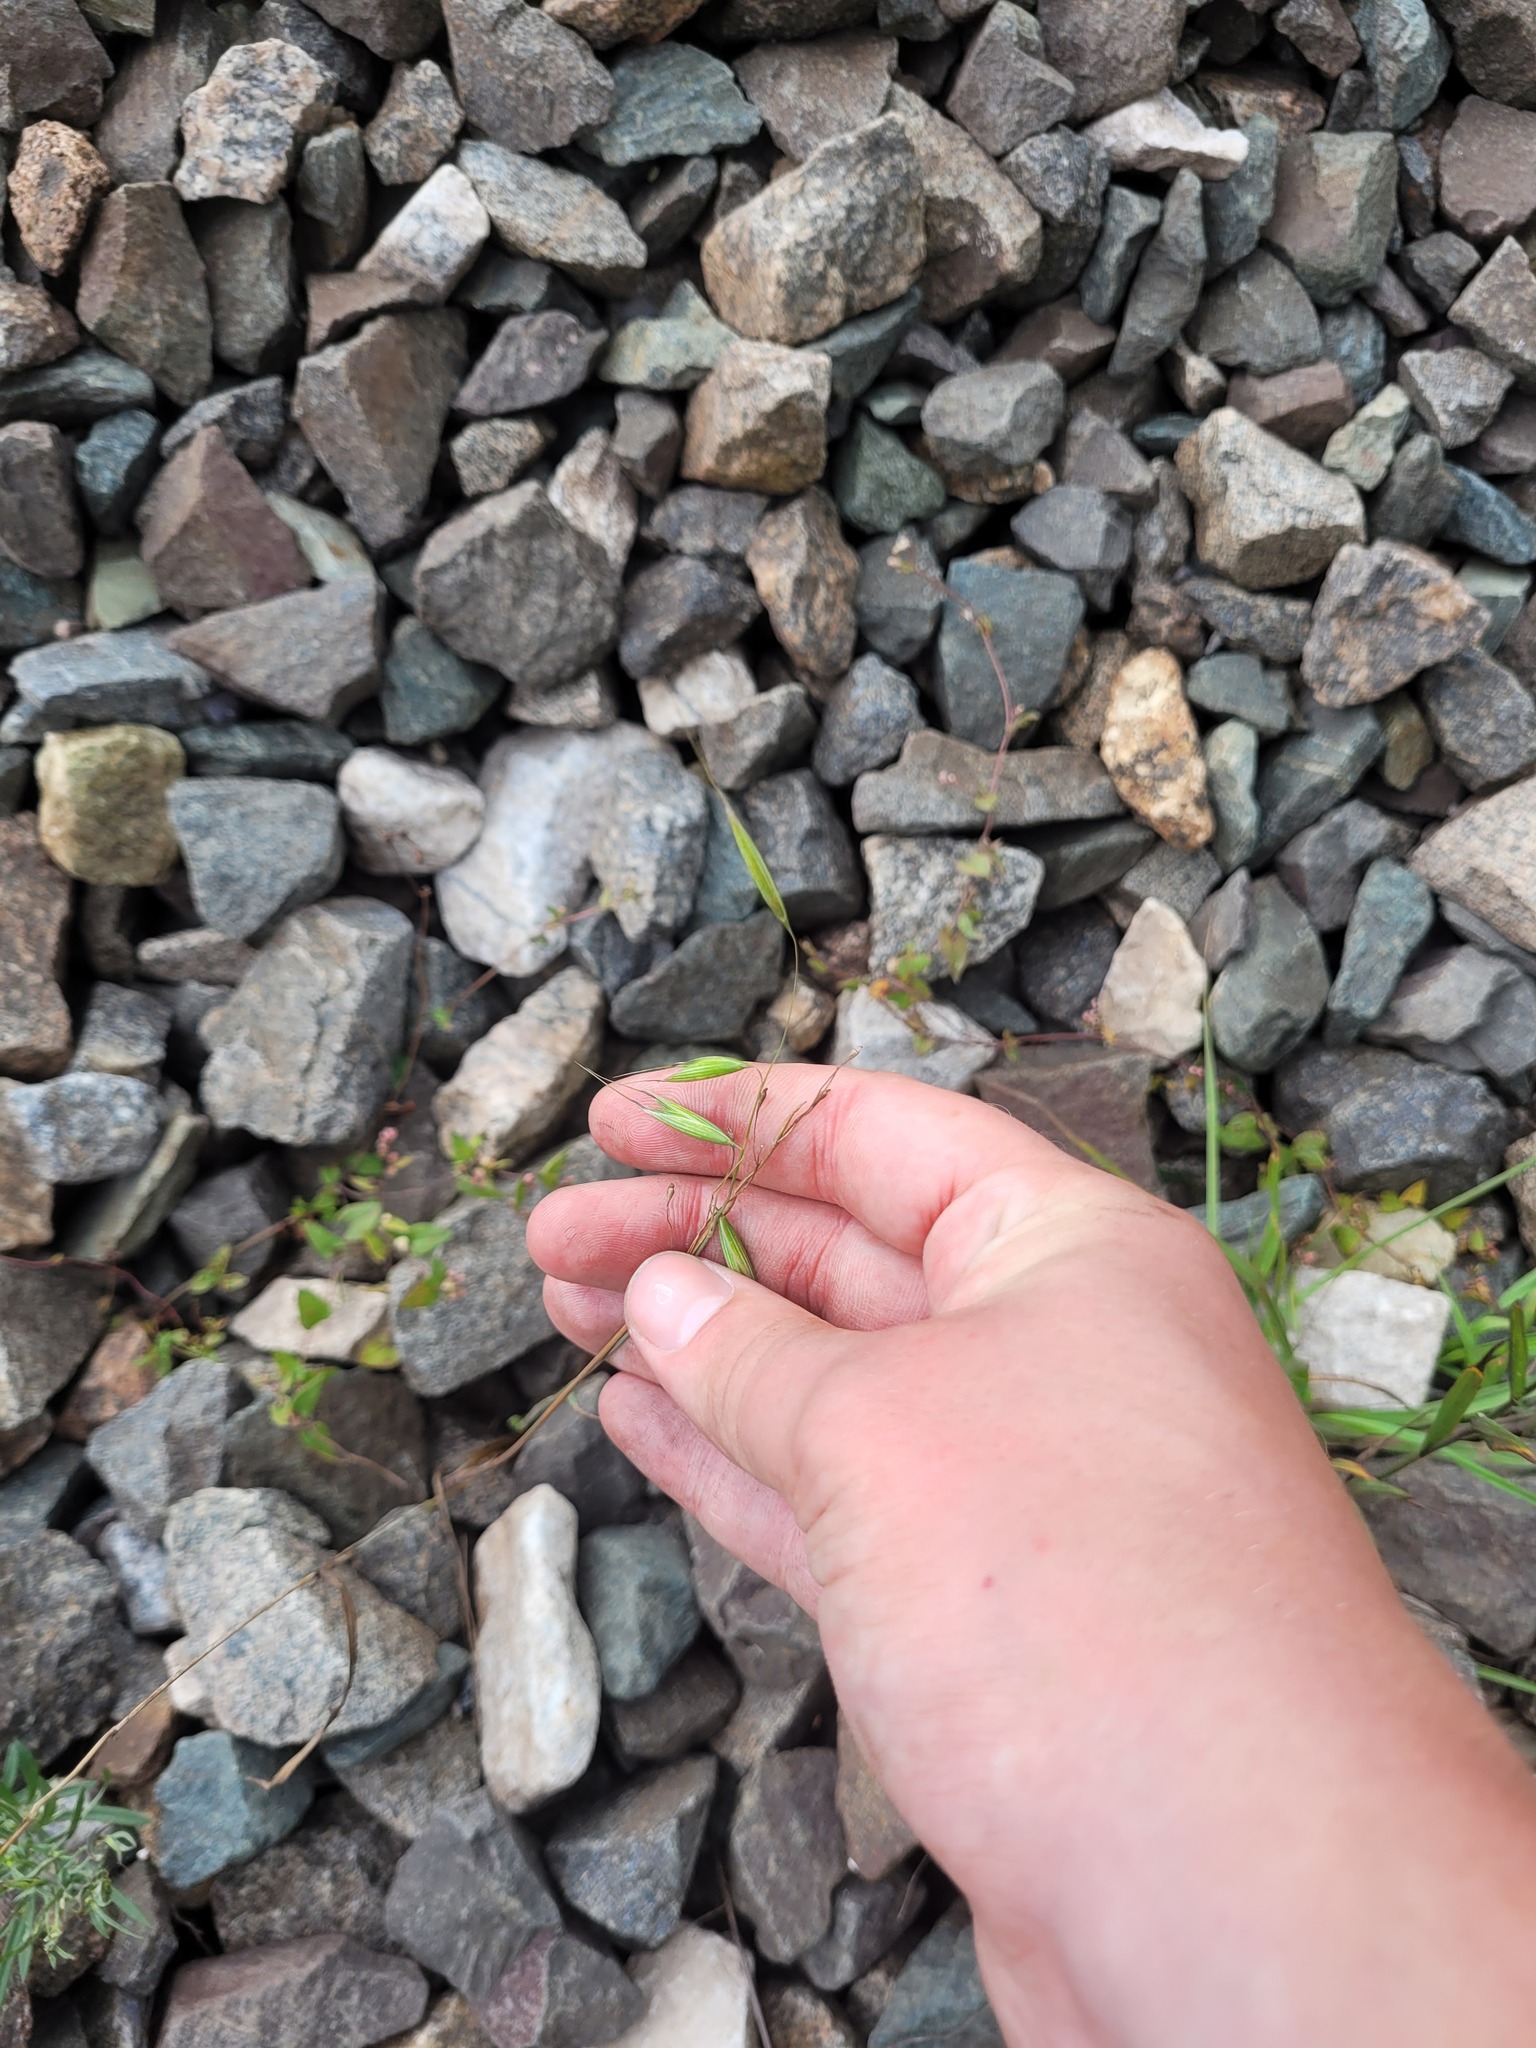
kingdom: Plantae
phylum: Tracheophyta
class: Liliopsida
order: Poales
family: Poaceae
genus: Avena
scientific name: Avena fatua
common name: Wild oat
